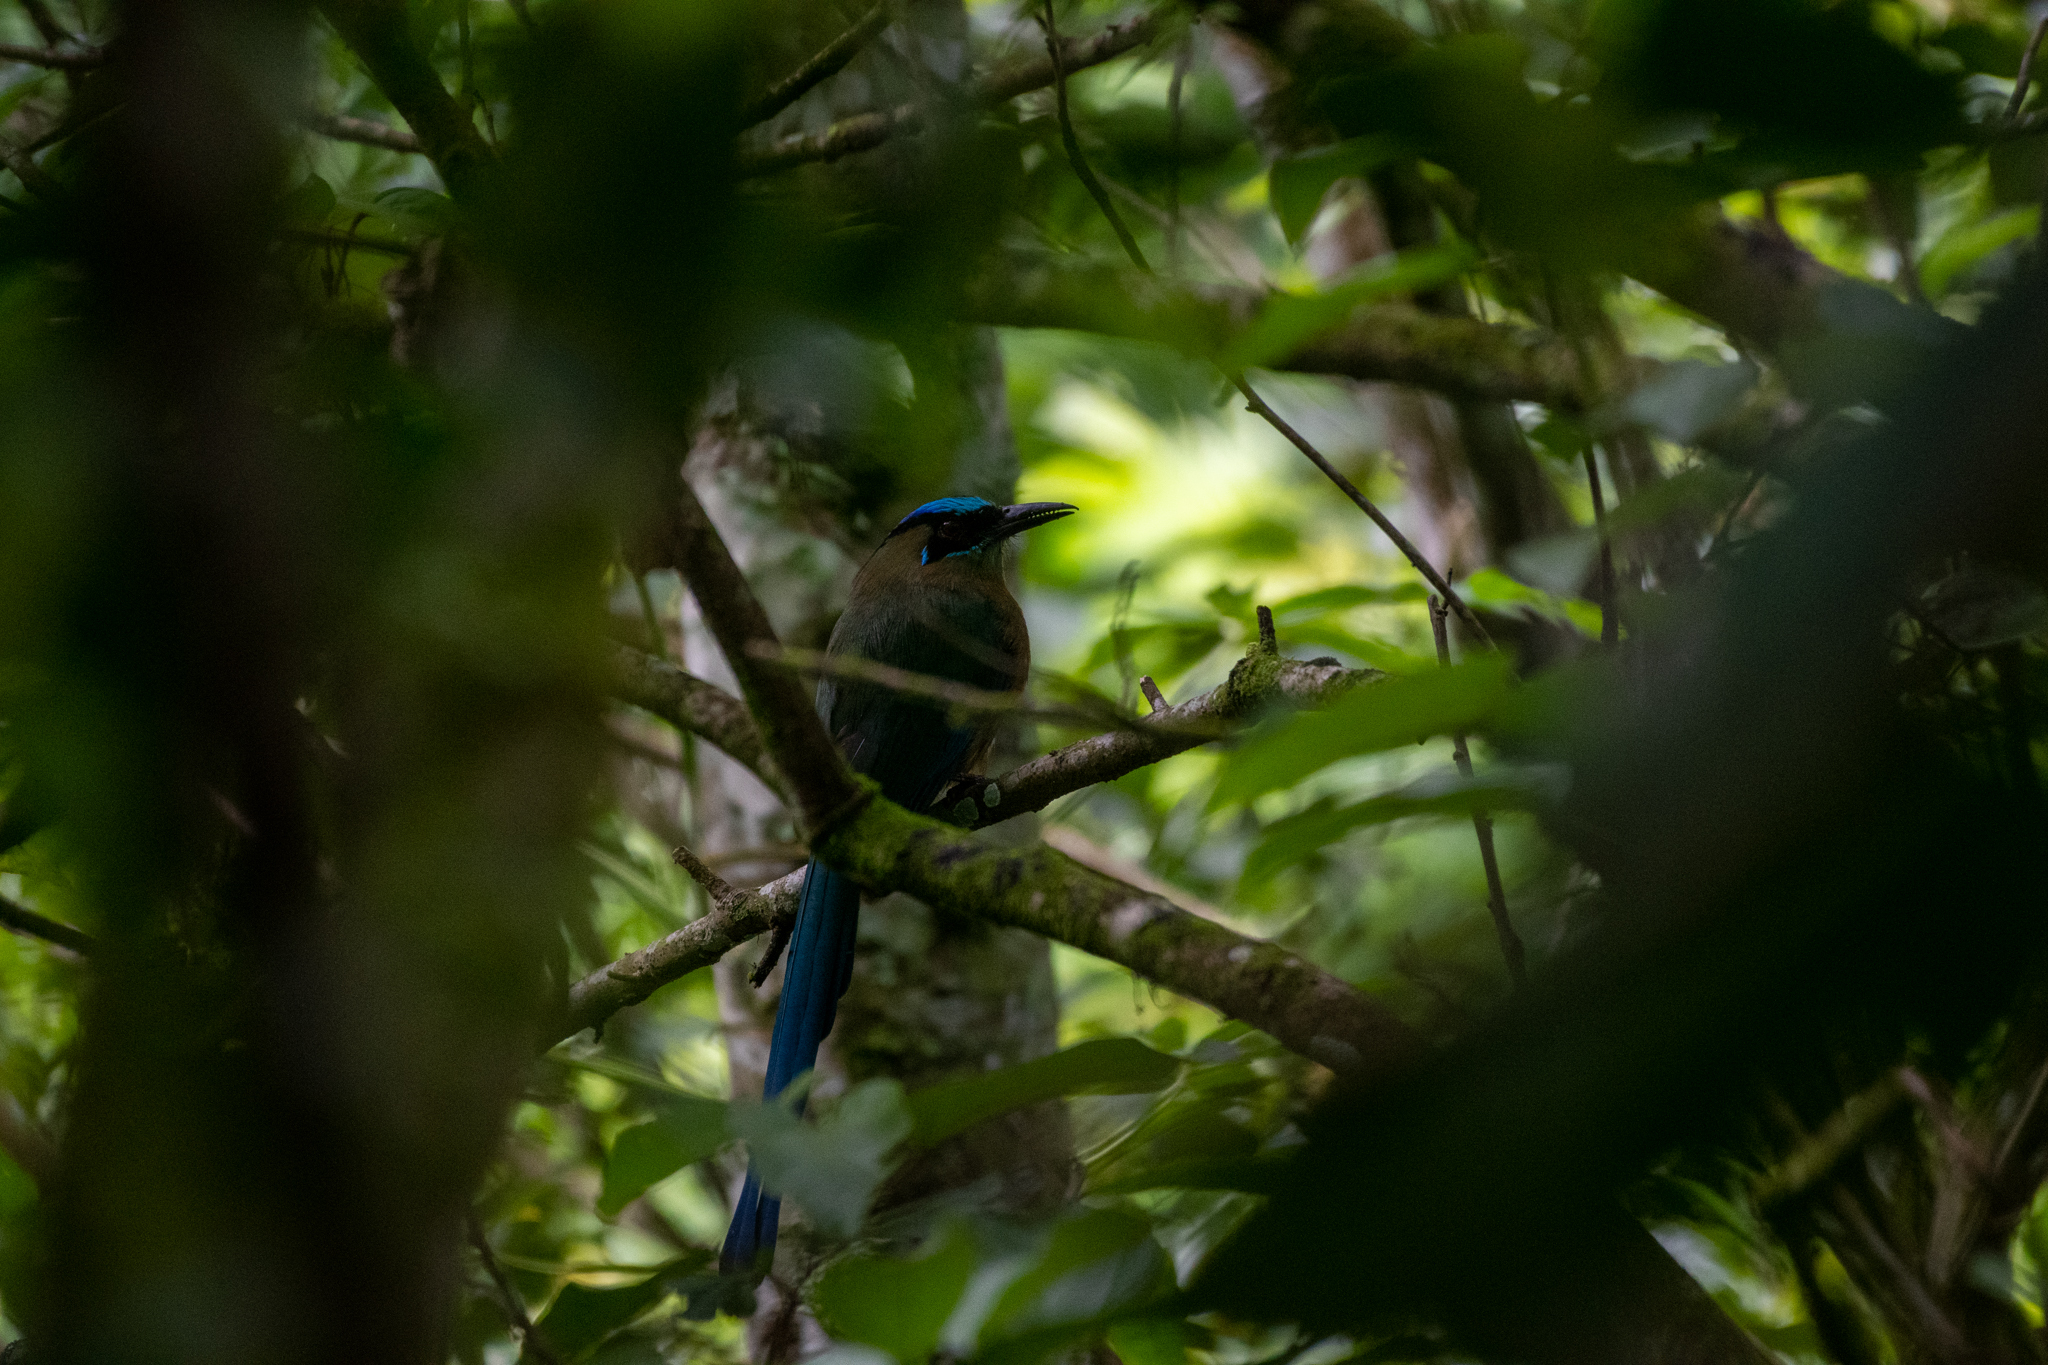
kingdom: Animalia
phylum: Chordata
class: Aves
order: Coraciiformes
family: Momotidae
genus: Momotus
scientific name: Momotus lessonii
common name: Lesson's motmot
